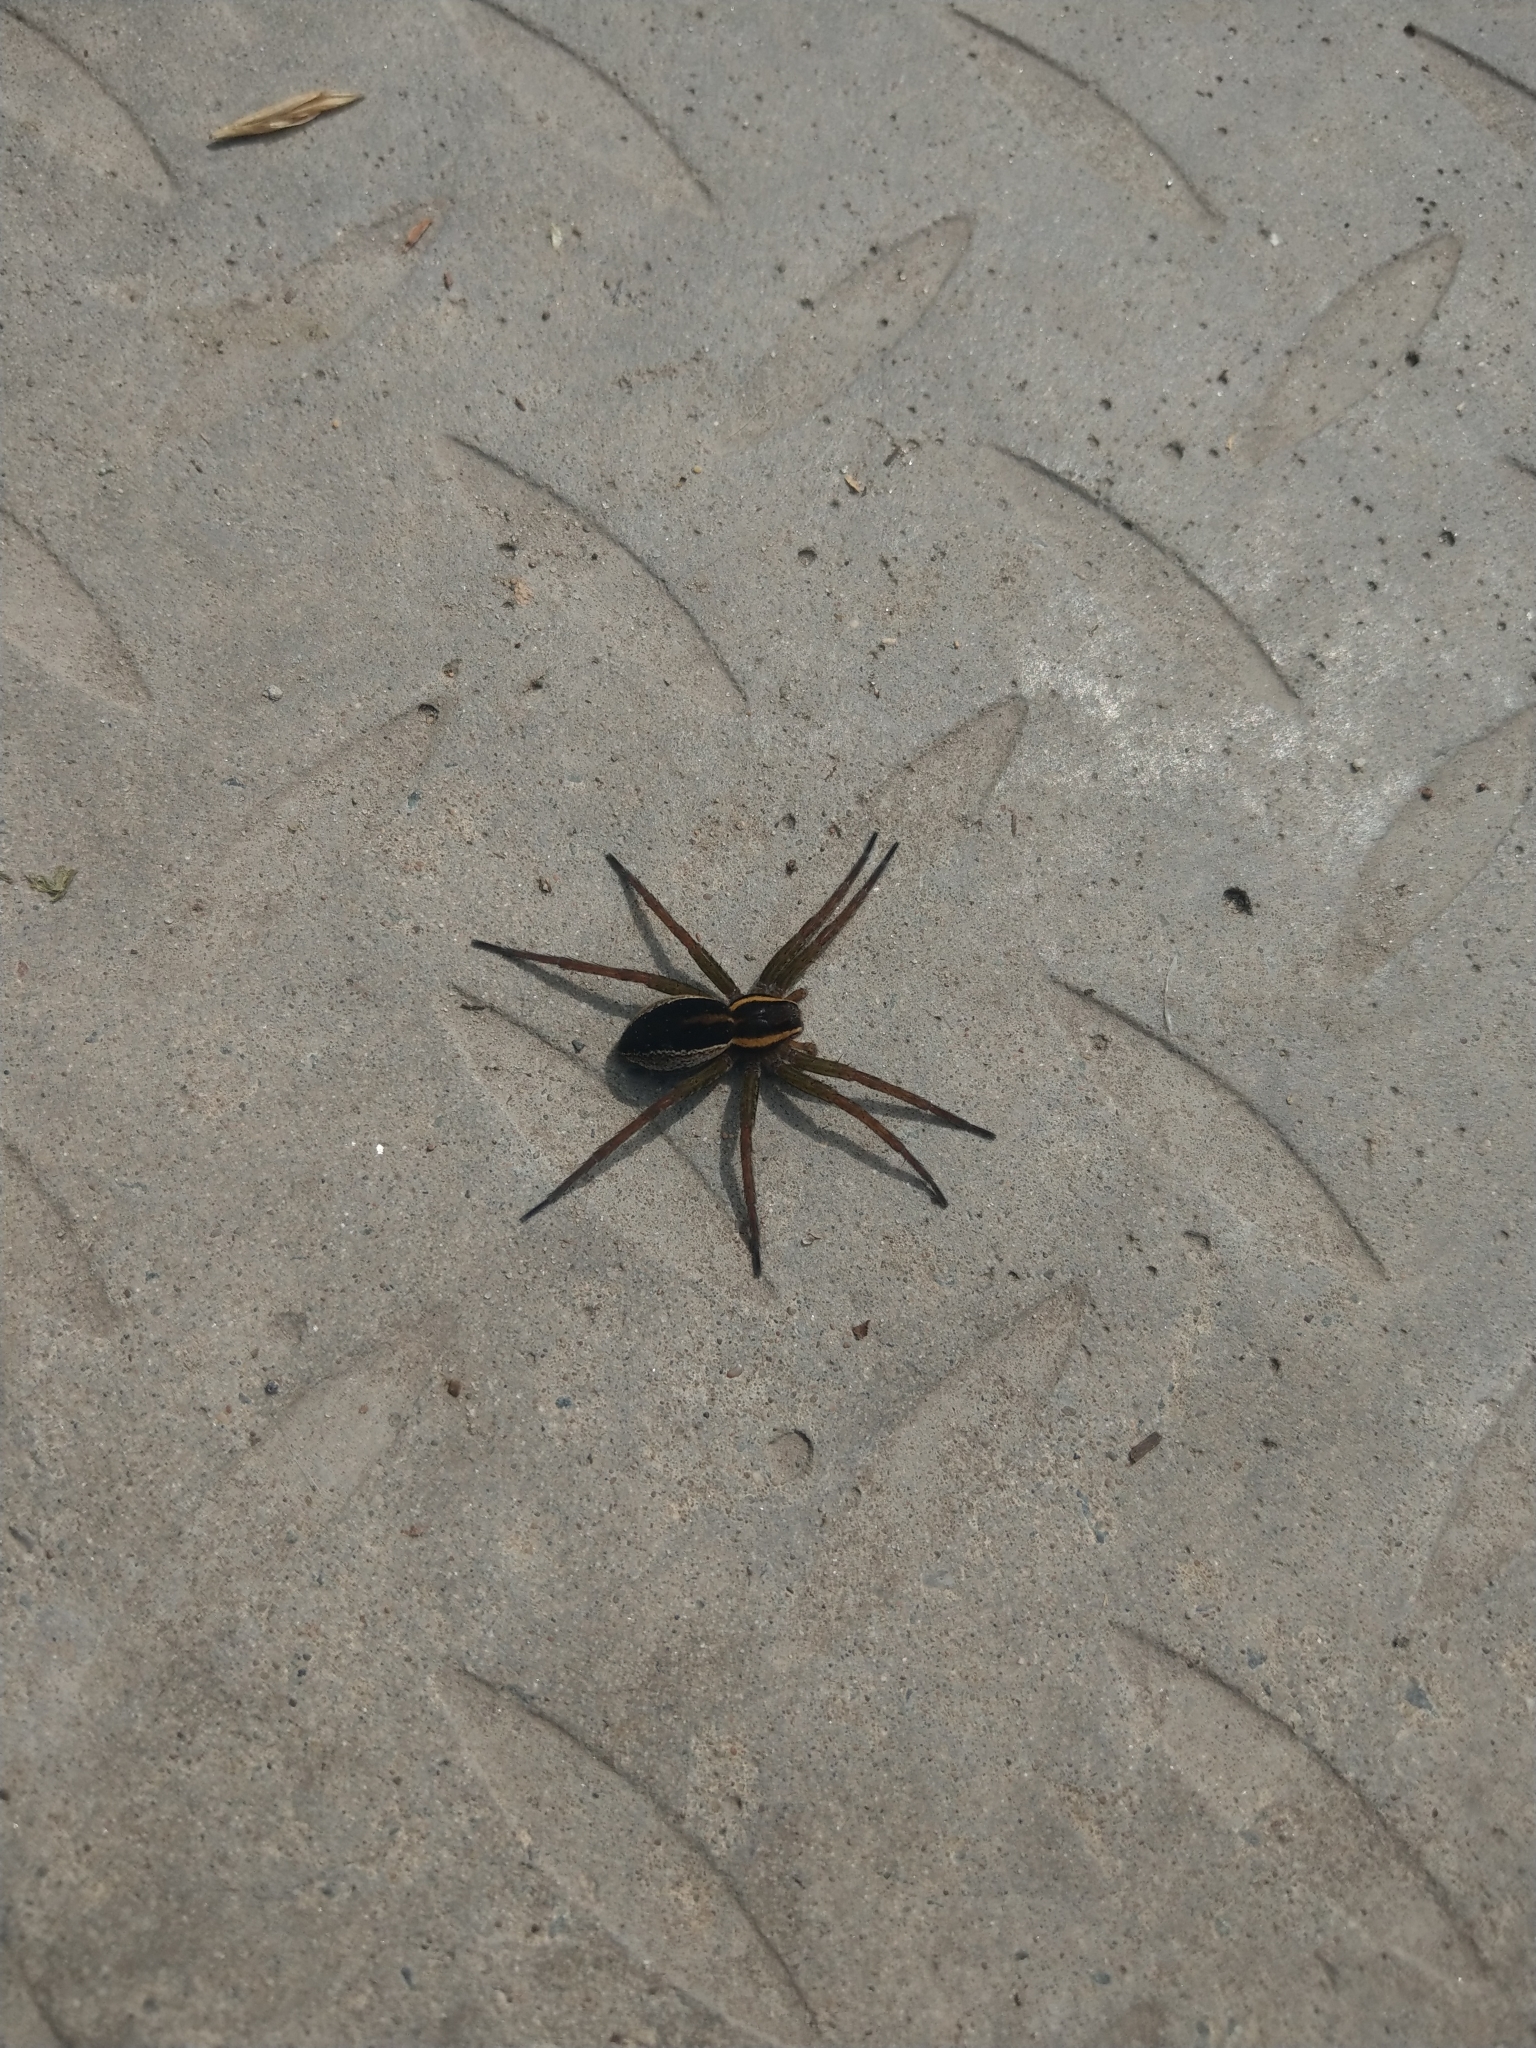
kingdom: Animalia
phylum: Arthropoda
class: Arachnida
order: Araneae
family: Pisauridae
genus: Dolomedes
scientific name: Dolomedes fimbriatus
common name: Raft spider
